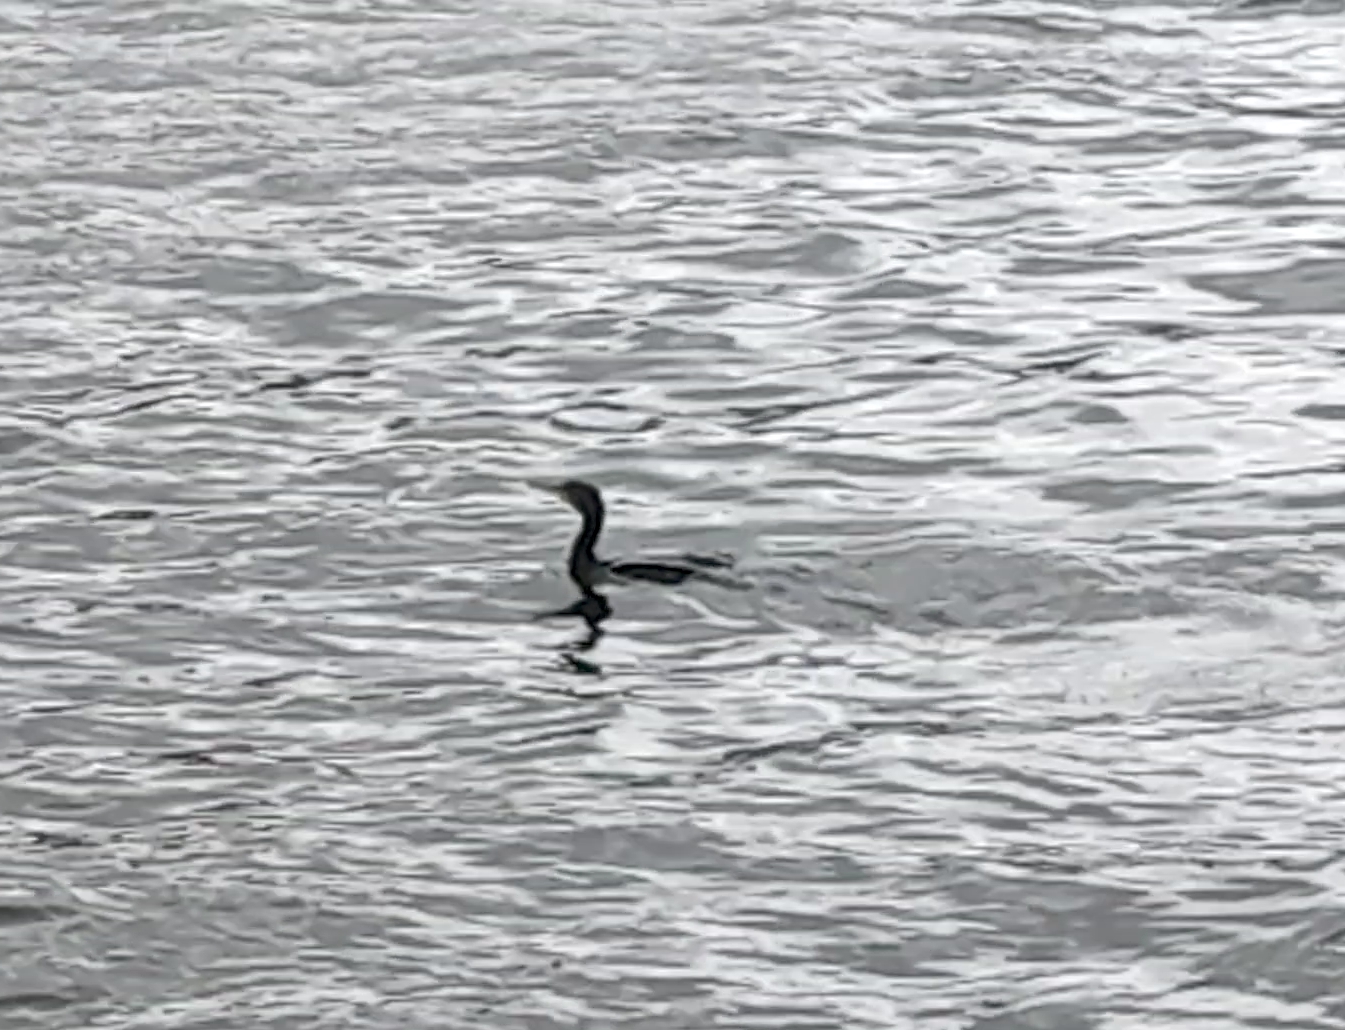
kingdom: Animalia
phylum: Chordata
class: Aves
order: Suliformes
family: Phalacrocoracidae
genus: Phalacrocorax
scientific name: Phalacrocorax carbo
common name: Great cormorant
